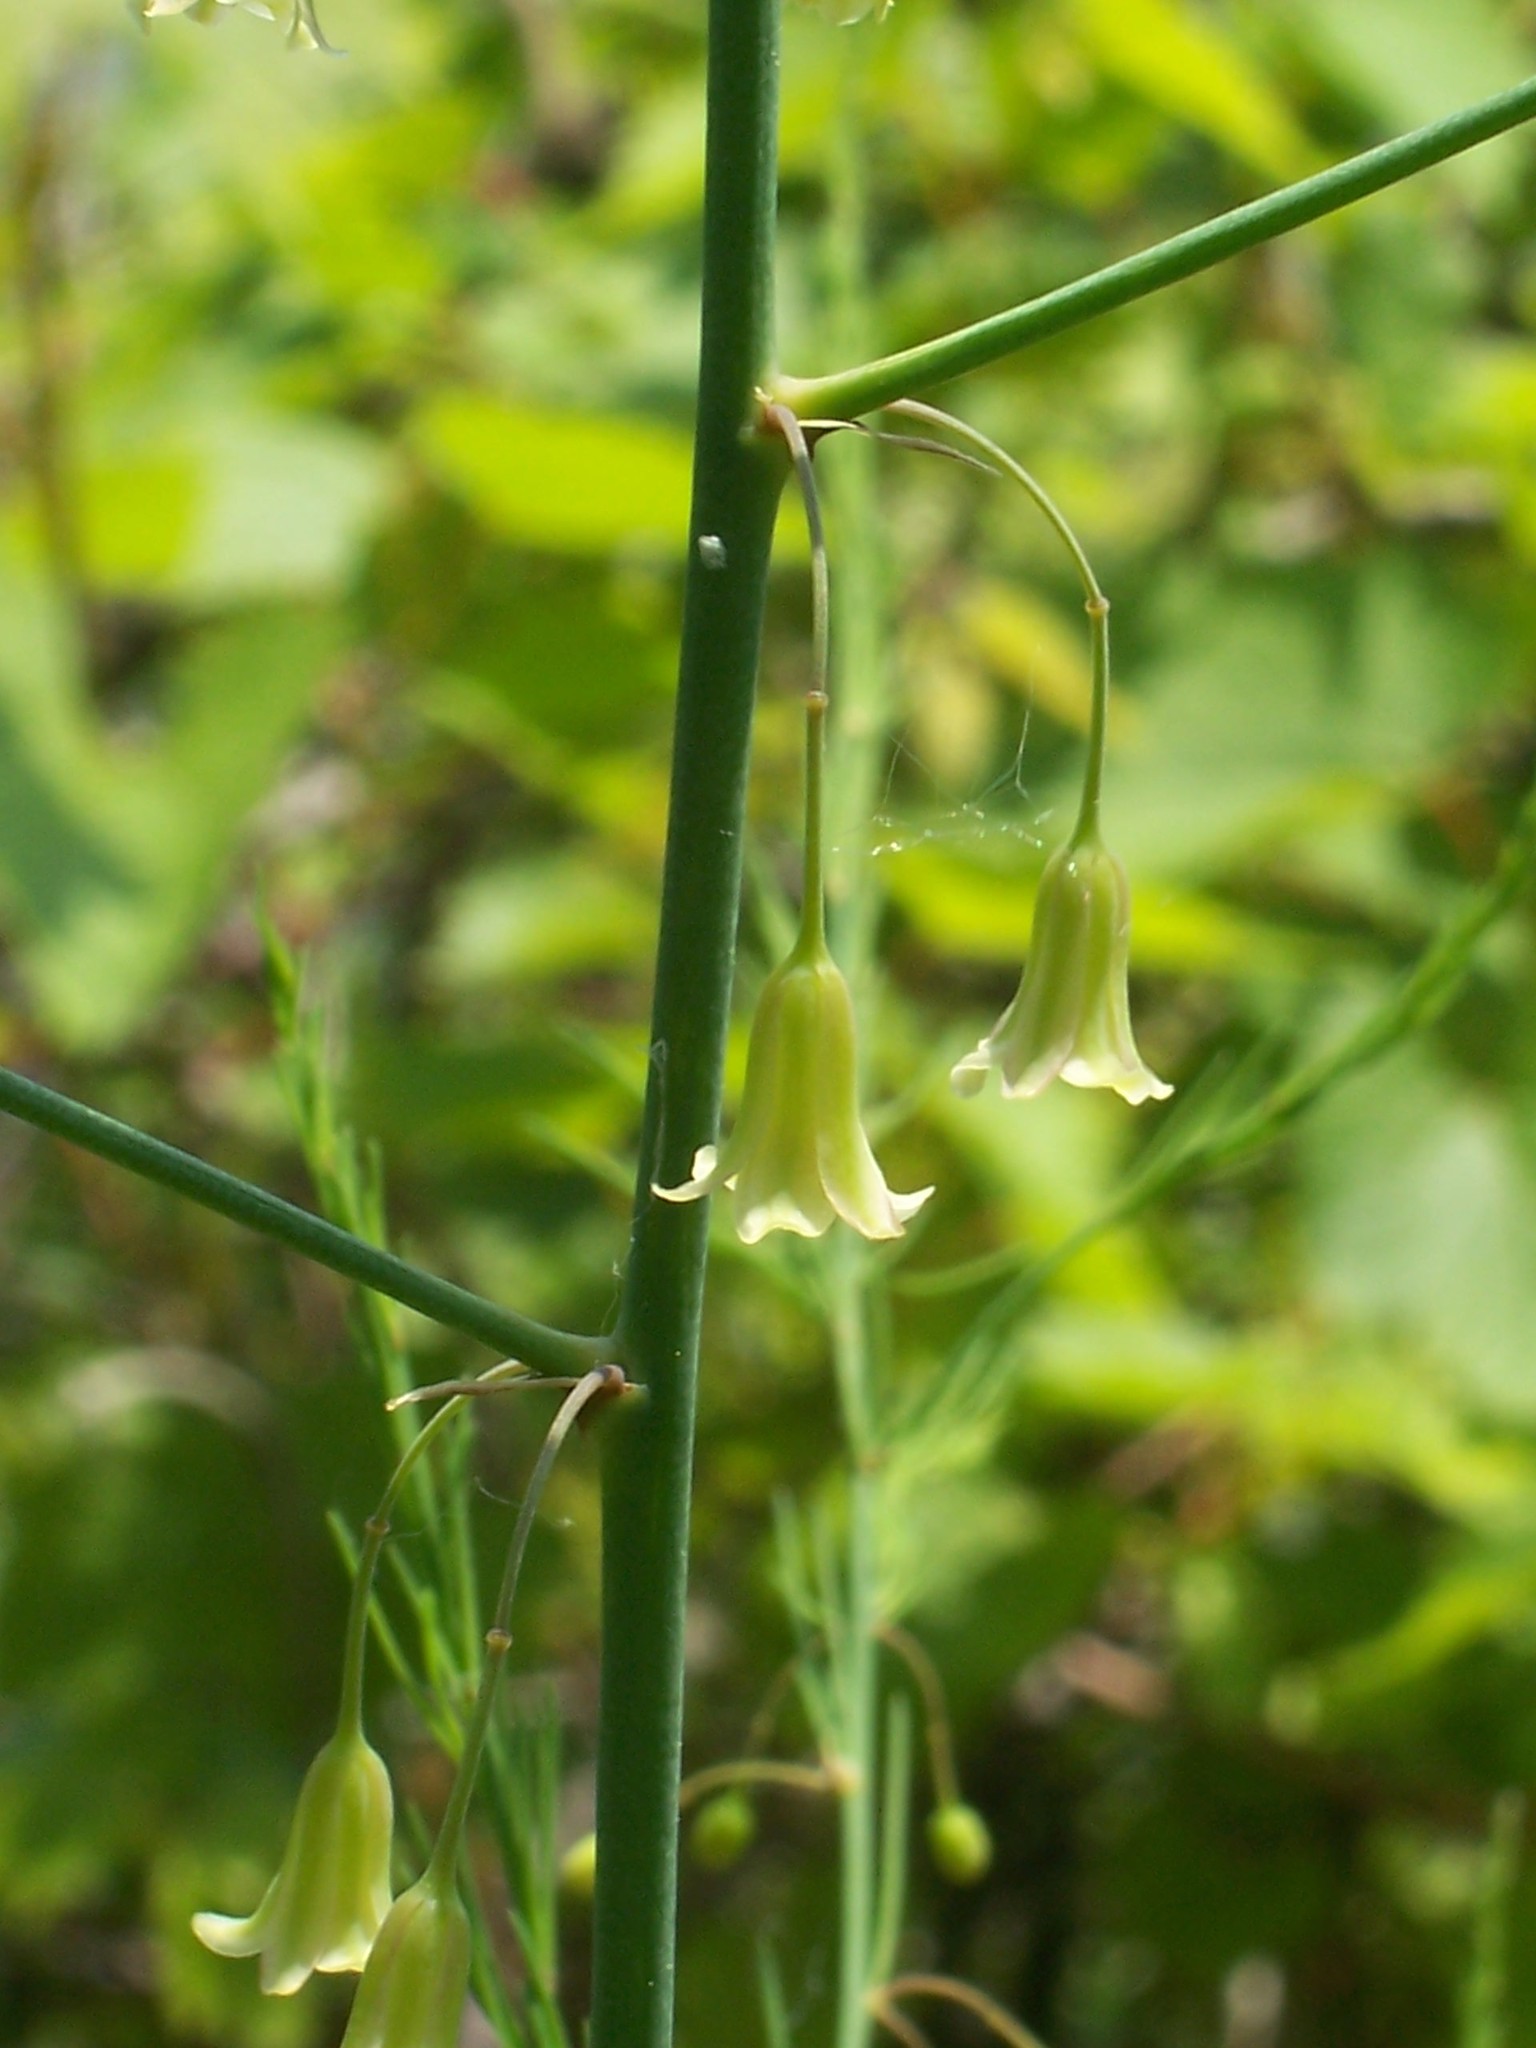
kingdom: Plantae
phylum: Tracheophyta
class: Liliopsida
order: Asparagales
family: Asparagaceae
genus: Asparagus
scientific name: Asparagus officinalis
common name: Garden asparagus
